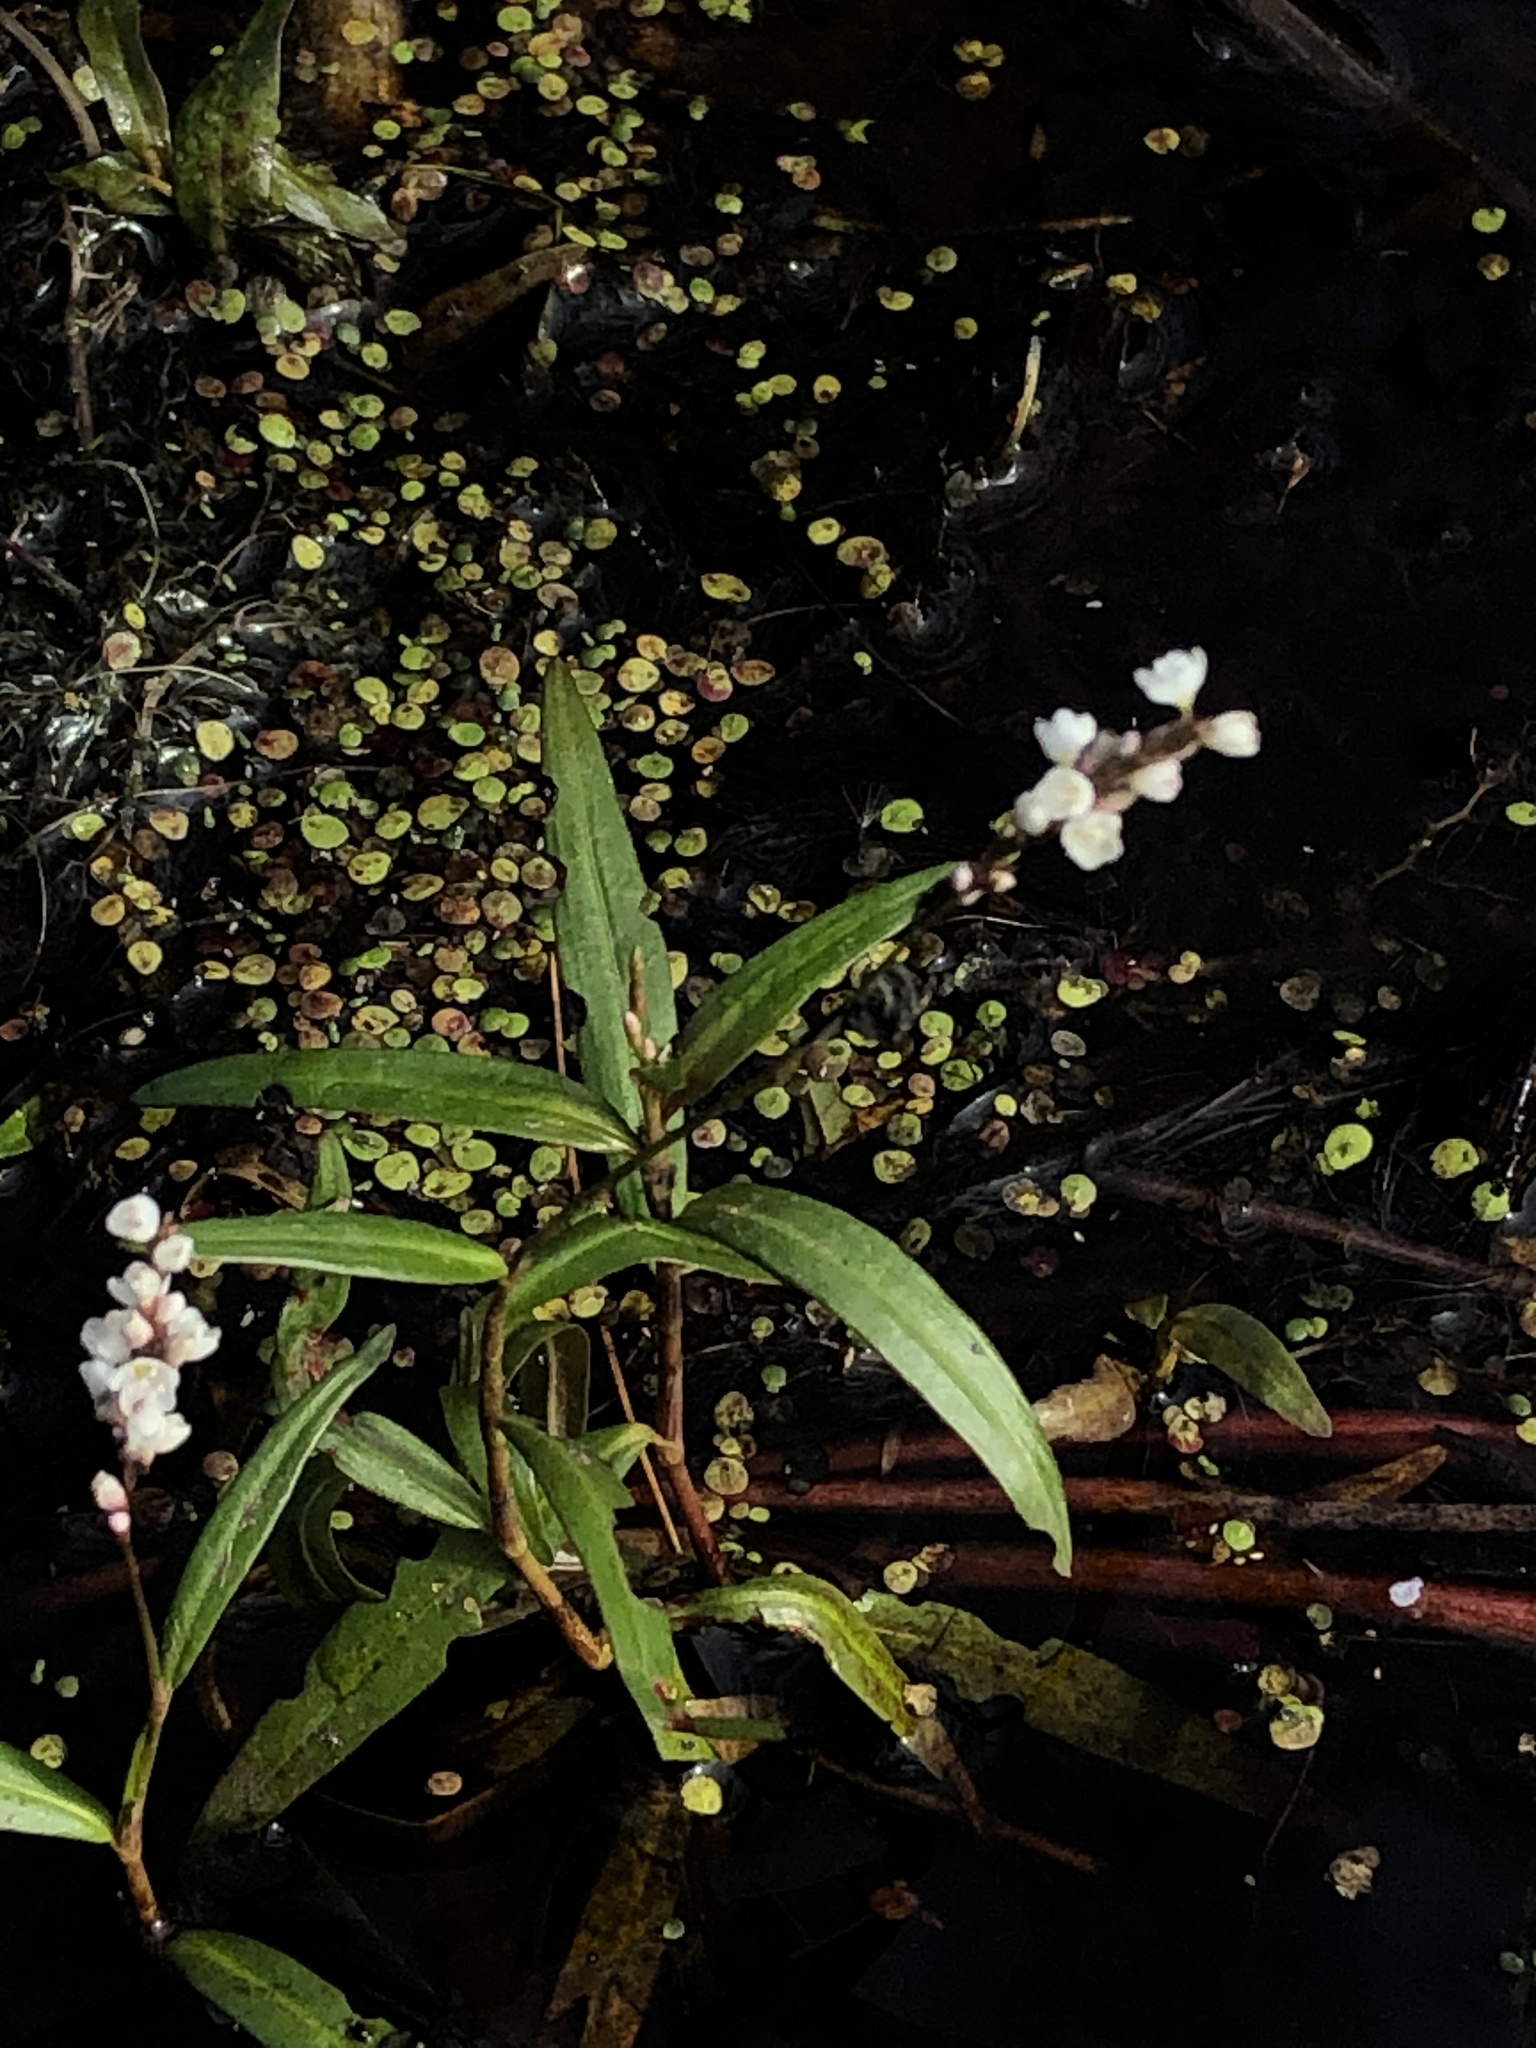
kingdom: Plantae
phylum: Tracheophyta
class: Magnoliopsida
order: Caryophyllales
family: Polygonaceae
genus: Persicaria
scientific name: Persicaria hydropiperoides
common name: Swamp smartweed
